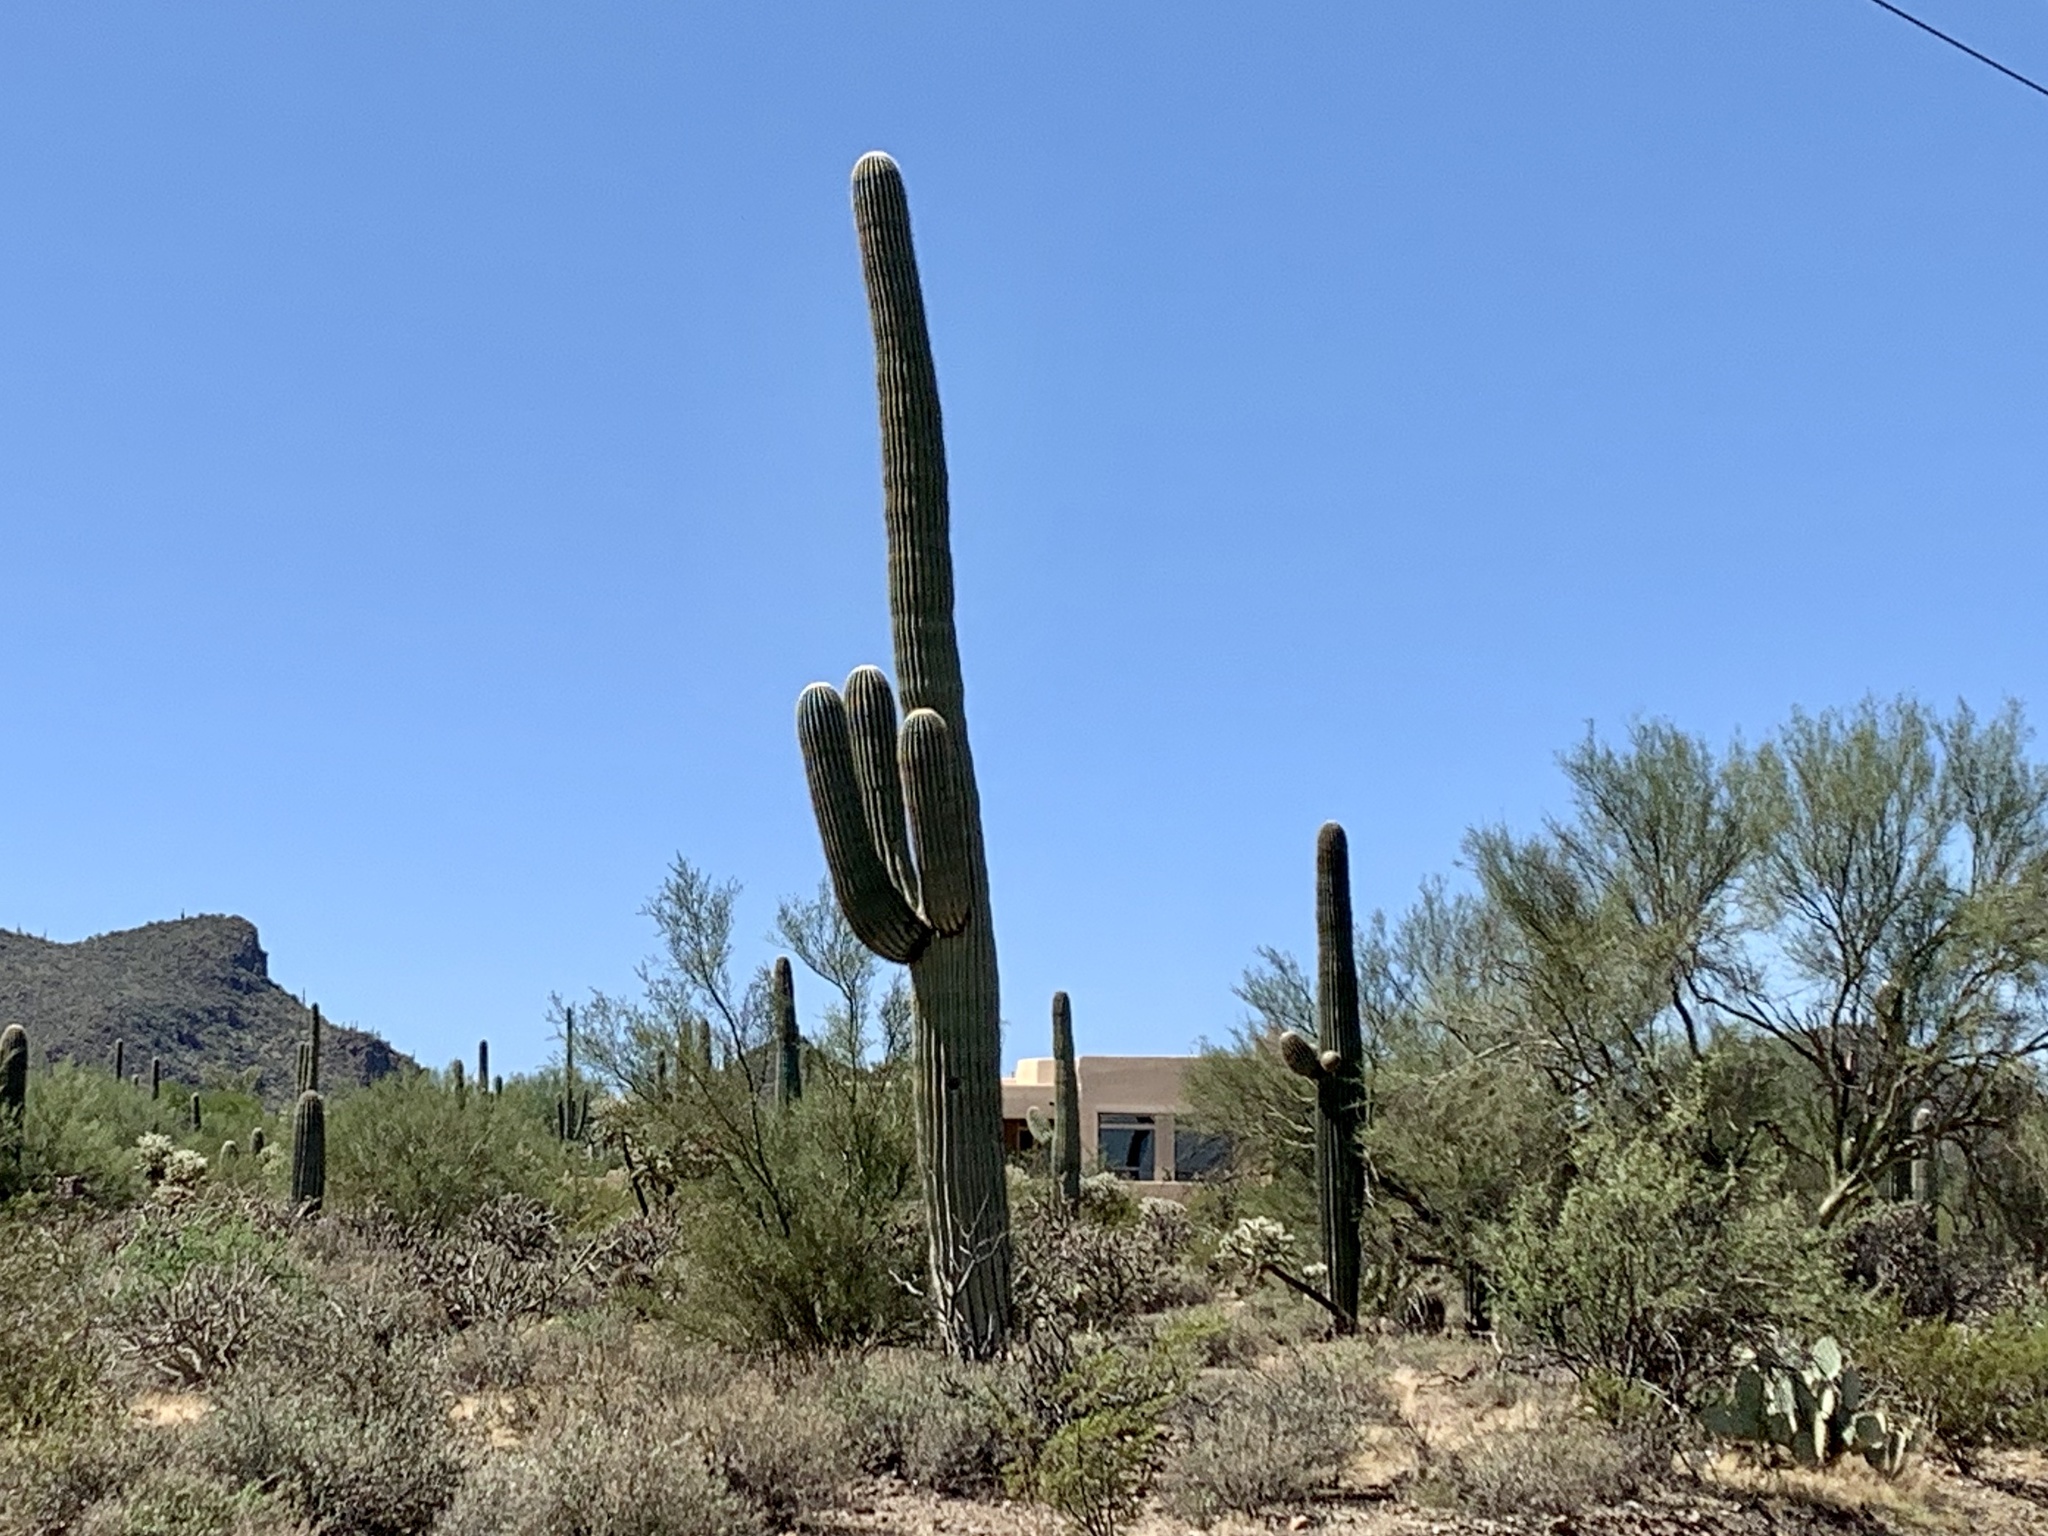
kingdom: Plantae
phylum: Tracheophyta
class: Magnoliopsida
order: Caryophyllales
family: Cactaceae
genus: Carnegiea
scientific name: Carnegiea gigantea
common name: Saguaro
